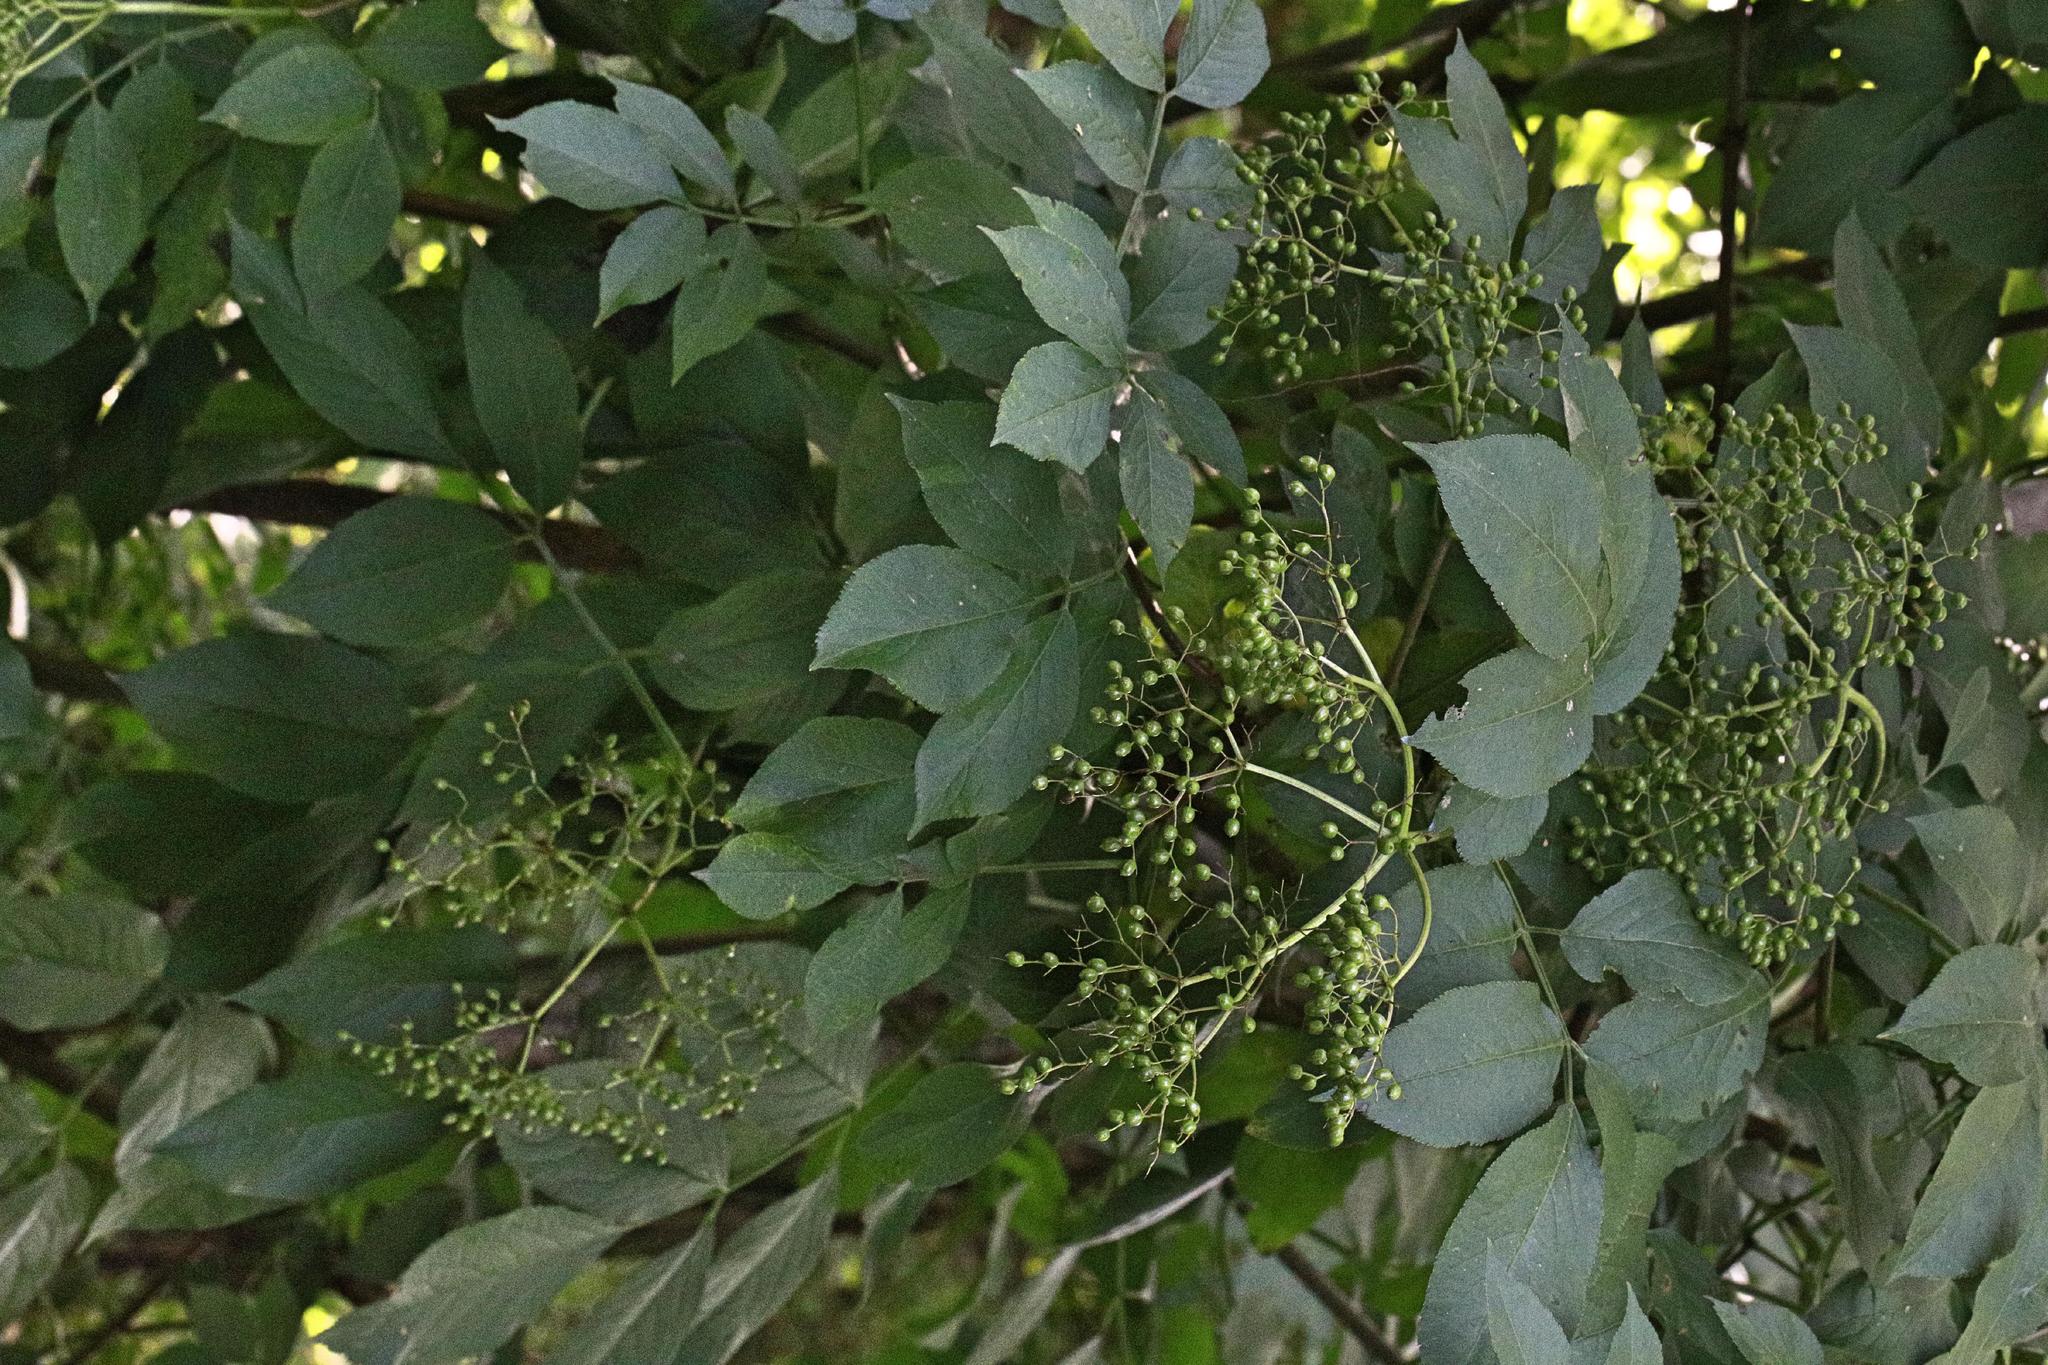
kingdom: Plantae
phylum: Tracheophyta
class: Magnoliopsida
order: Dipsacales
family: Viburnaceae
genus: Sambucus
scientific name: Sambucus nigra
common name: Elder
